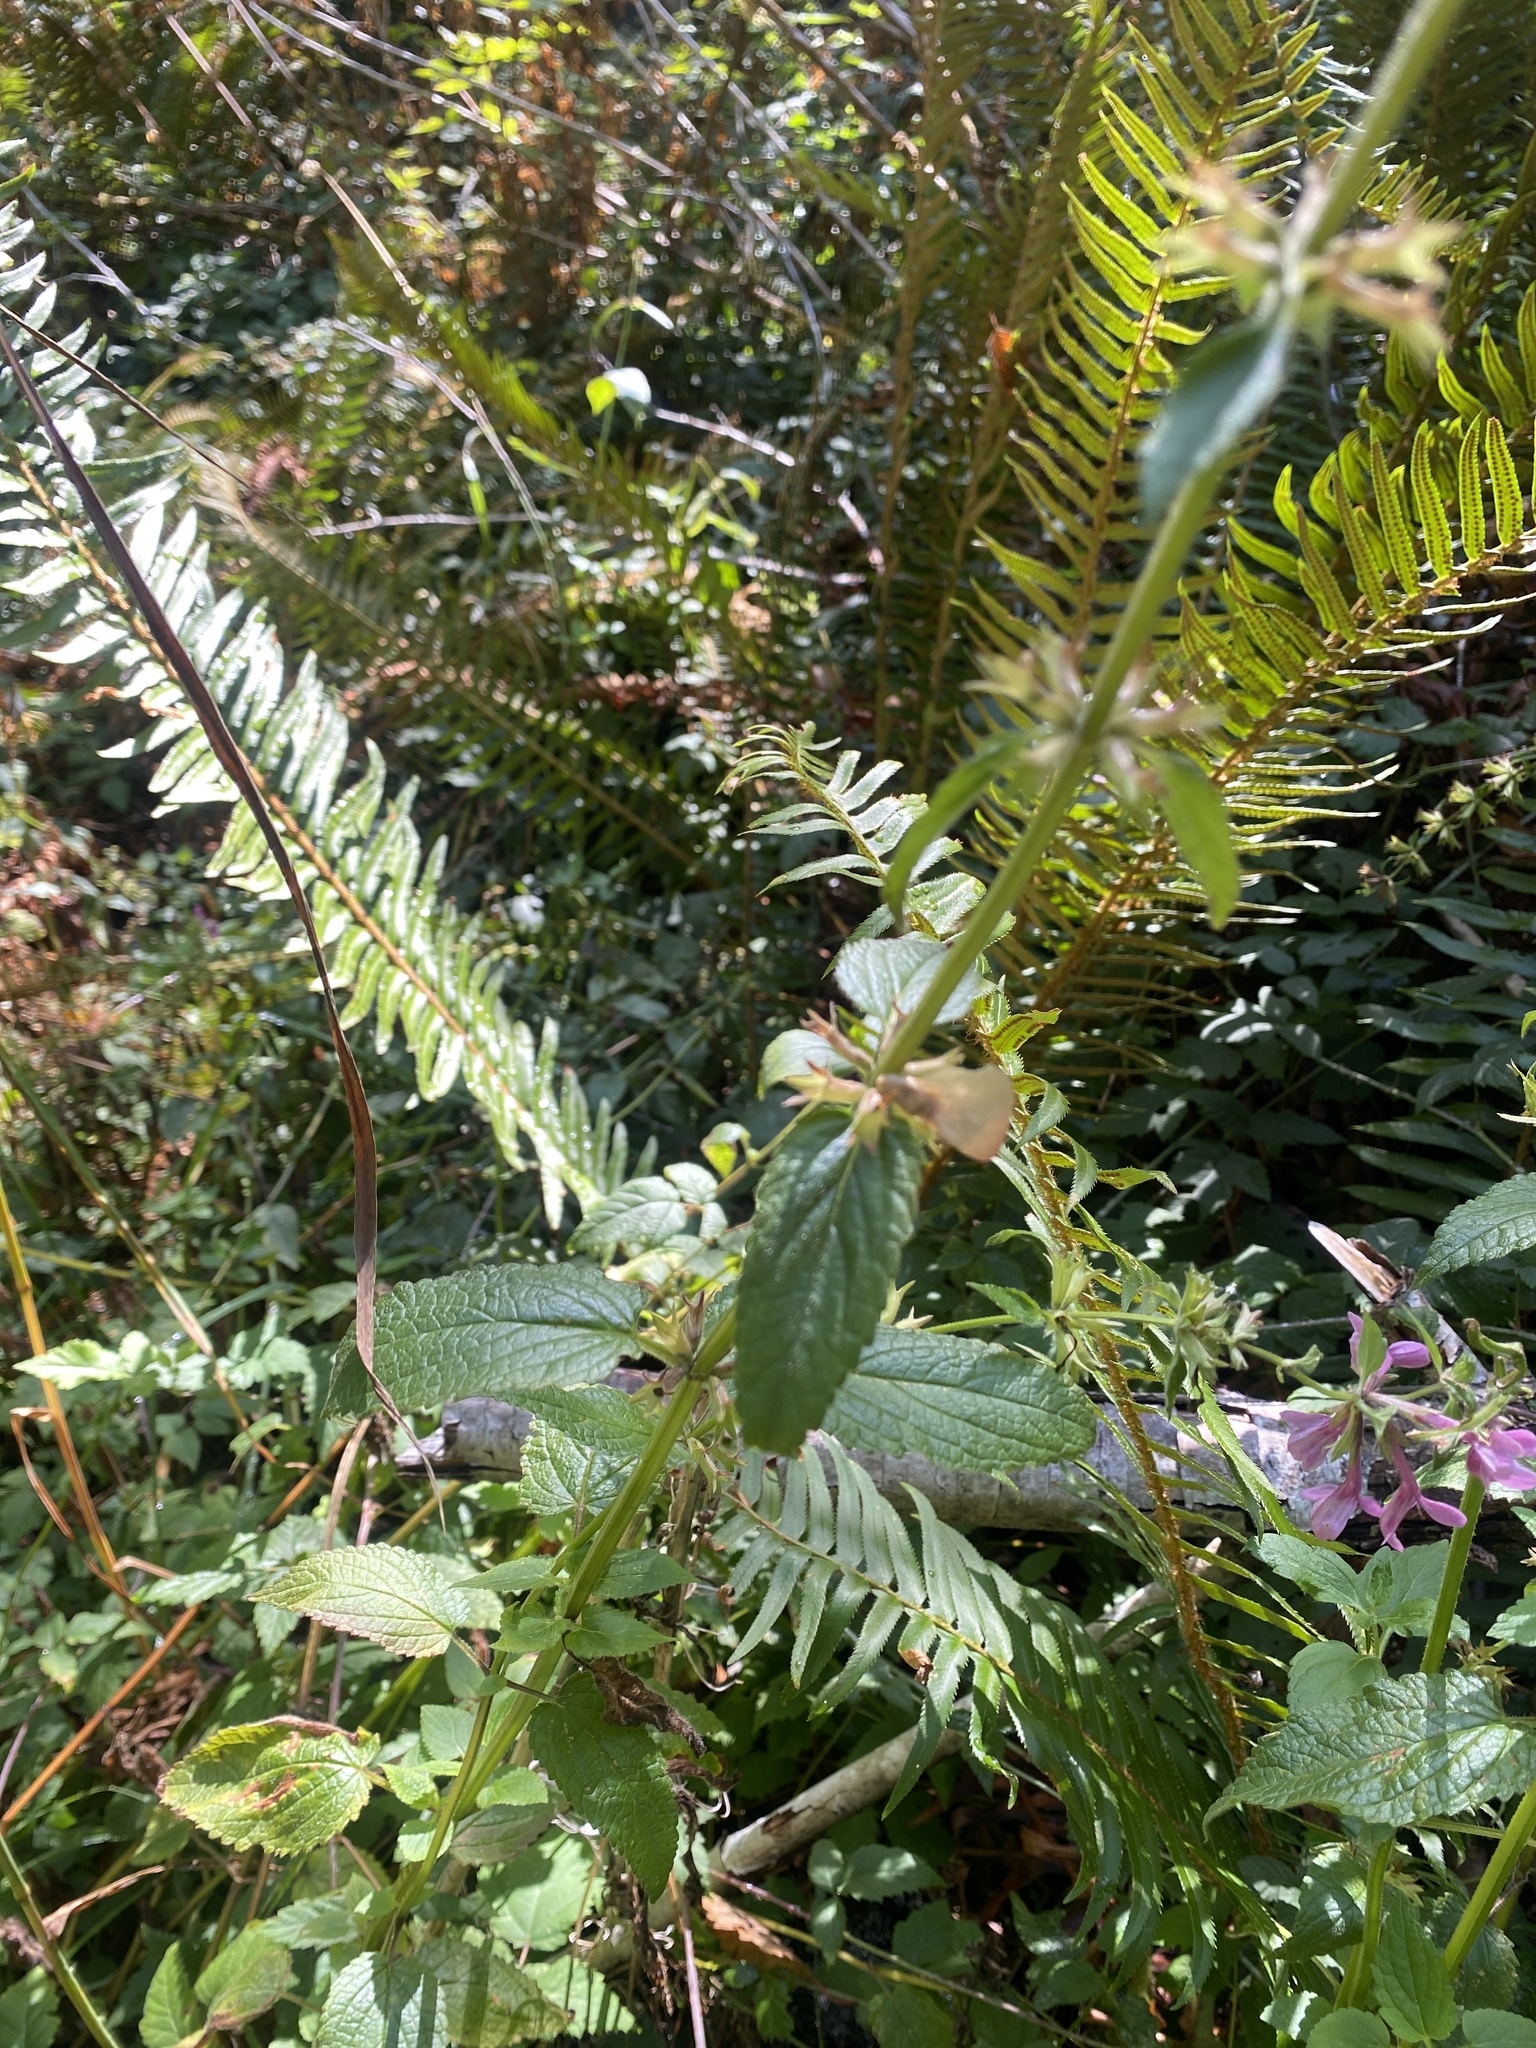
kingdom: Plantae
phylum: Tracheophyta
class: Magnoliopsida
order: Lamiales
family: Lamiaceae
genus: Stachys
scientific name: Stachys chamissonis
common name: Coastal hedge-nettle
